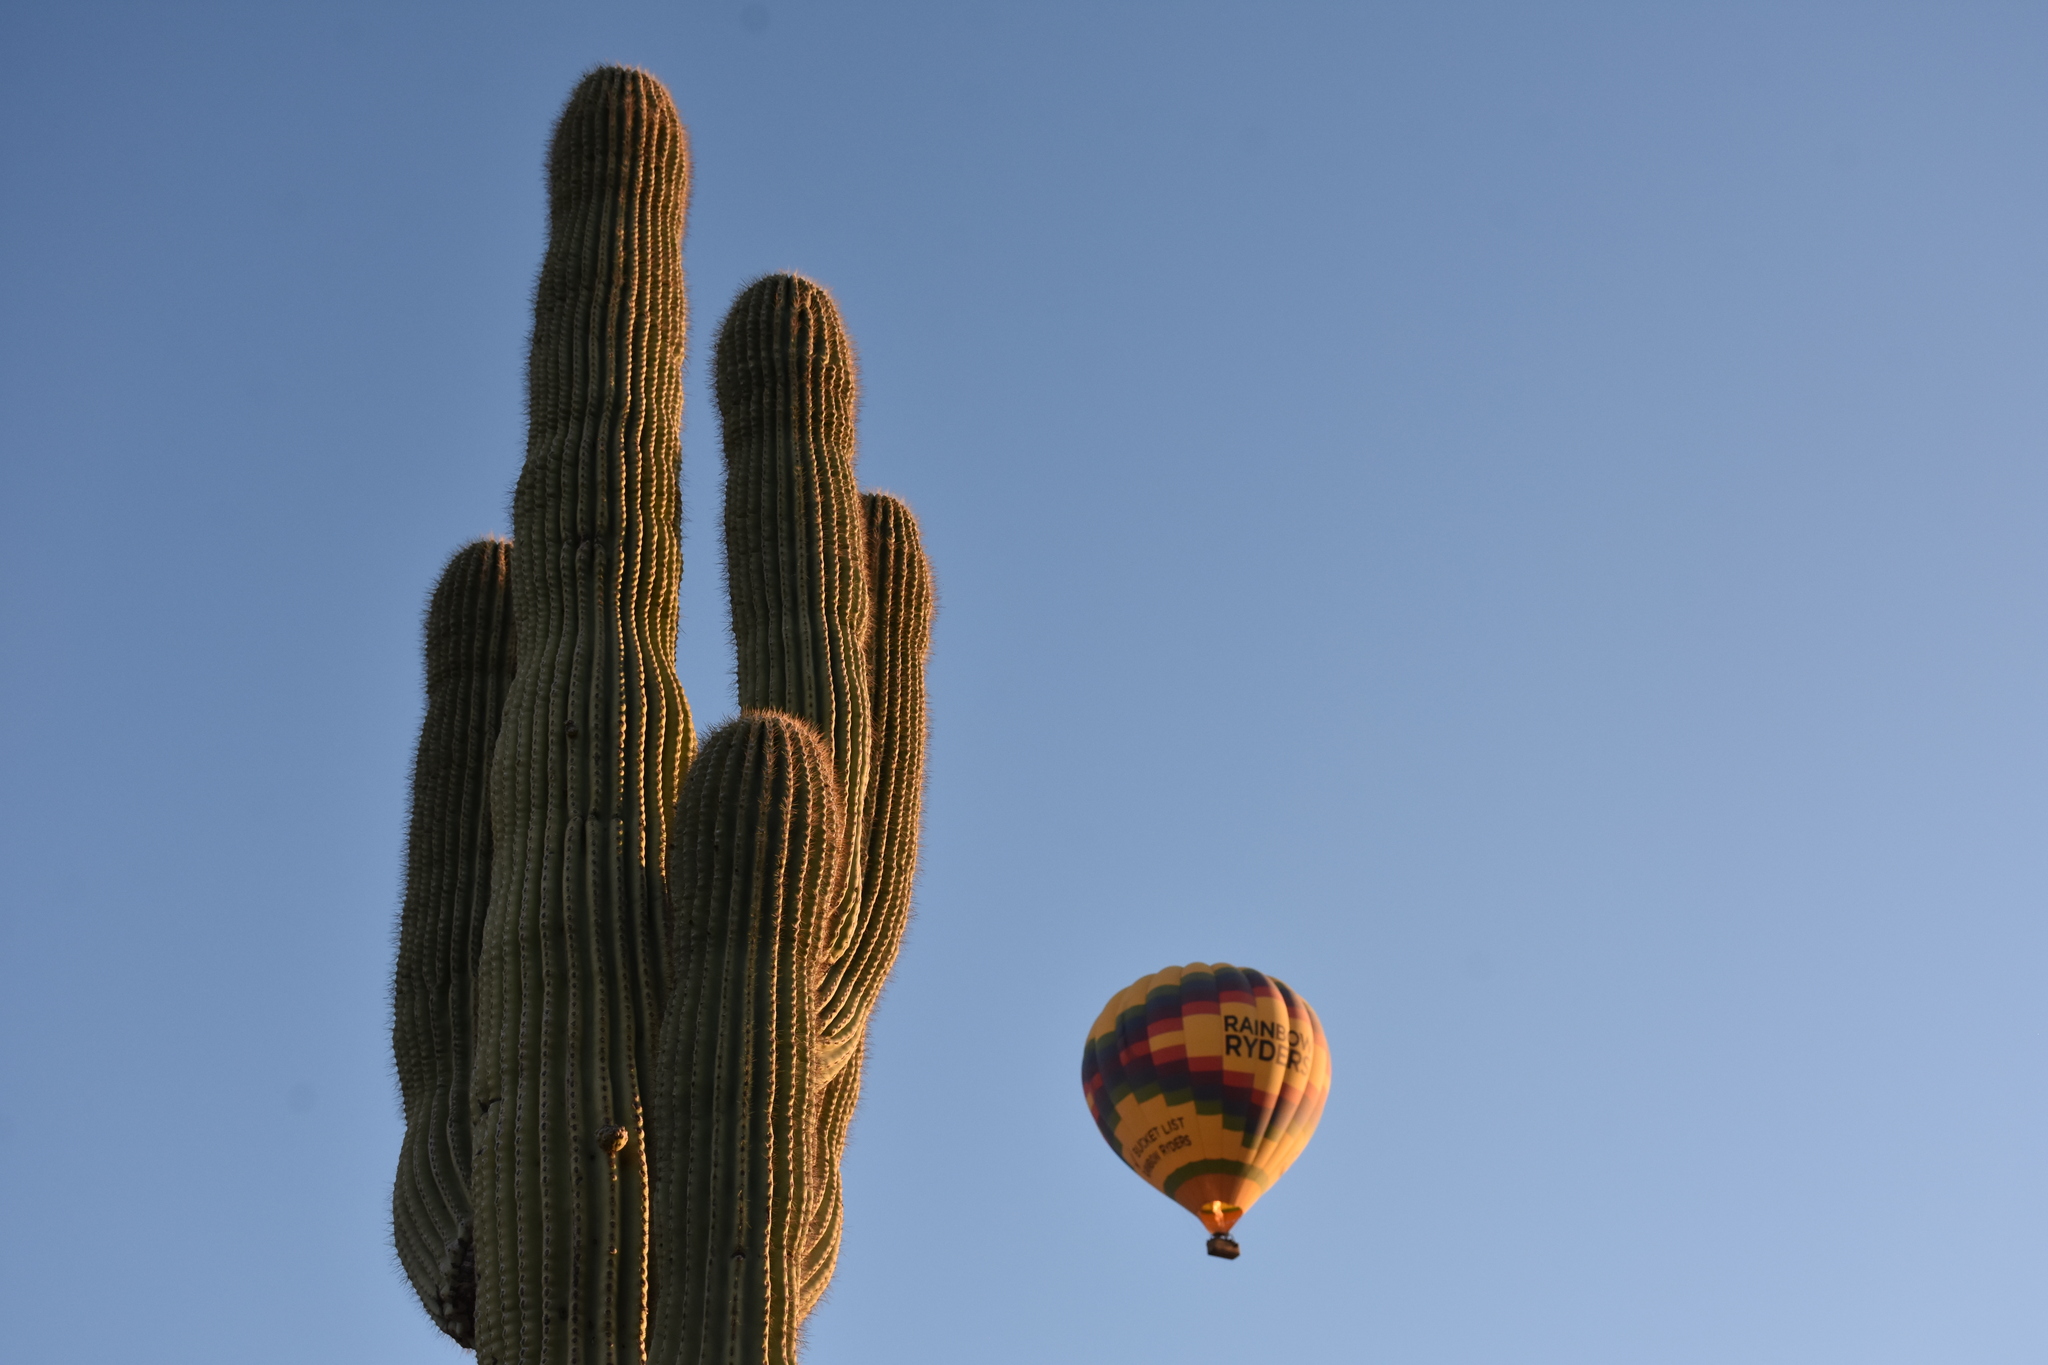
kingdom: Plantae
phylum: Tracheophyta
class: Magnoliopsida
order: Caryophyllales
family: Cactaceae
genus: Carnegiea
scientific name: Carnegiea gigantea
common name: Saguaro
